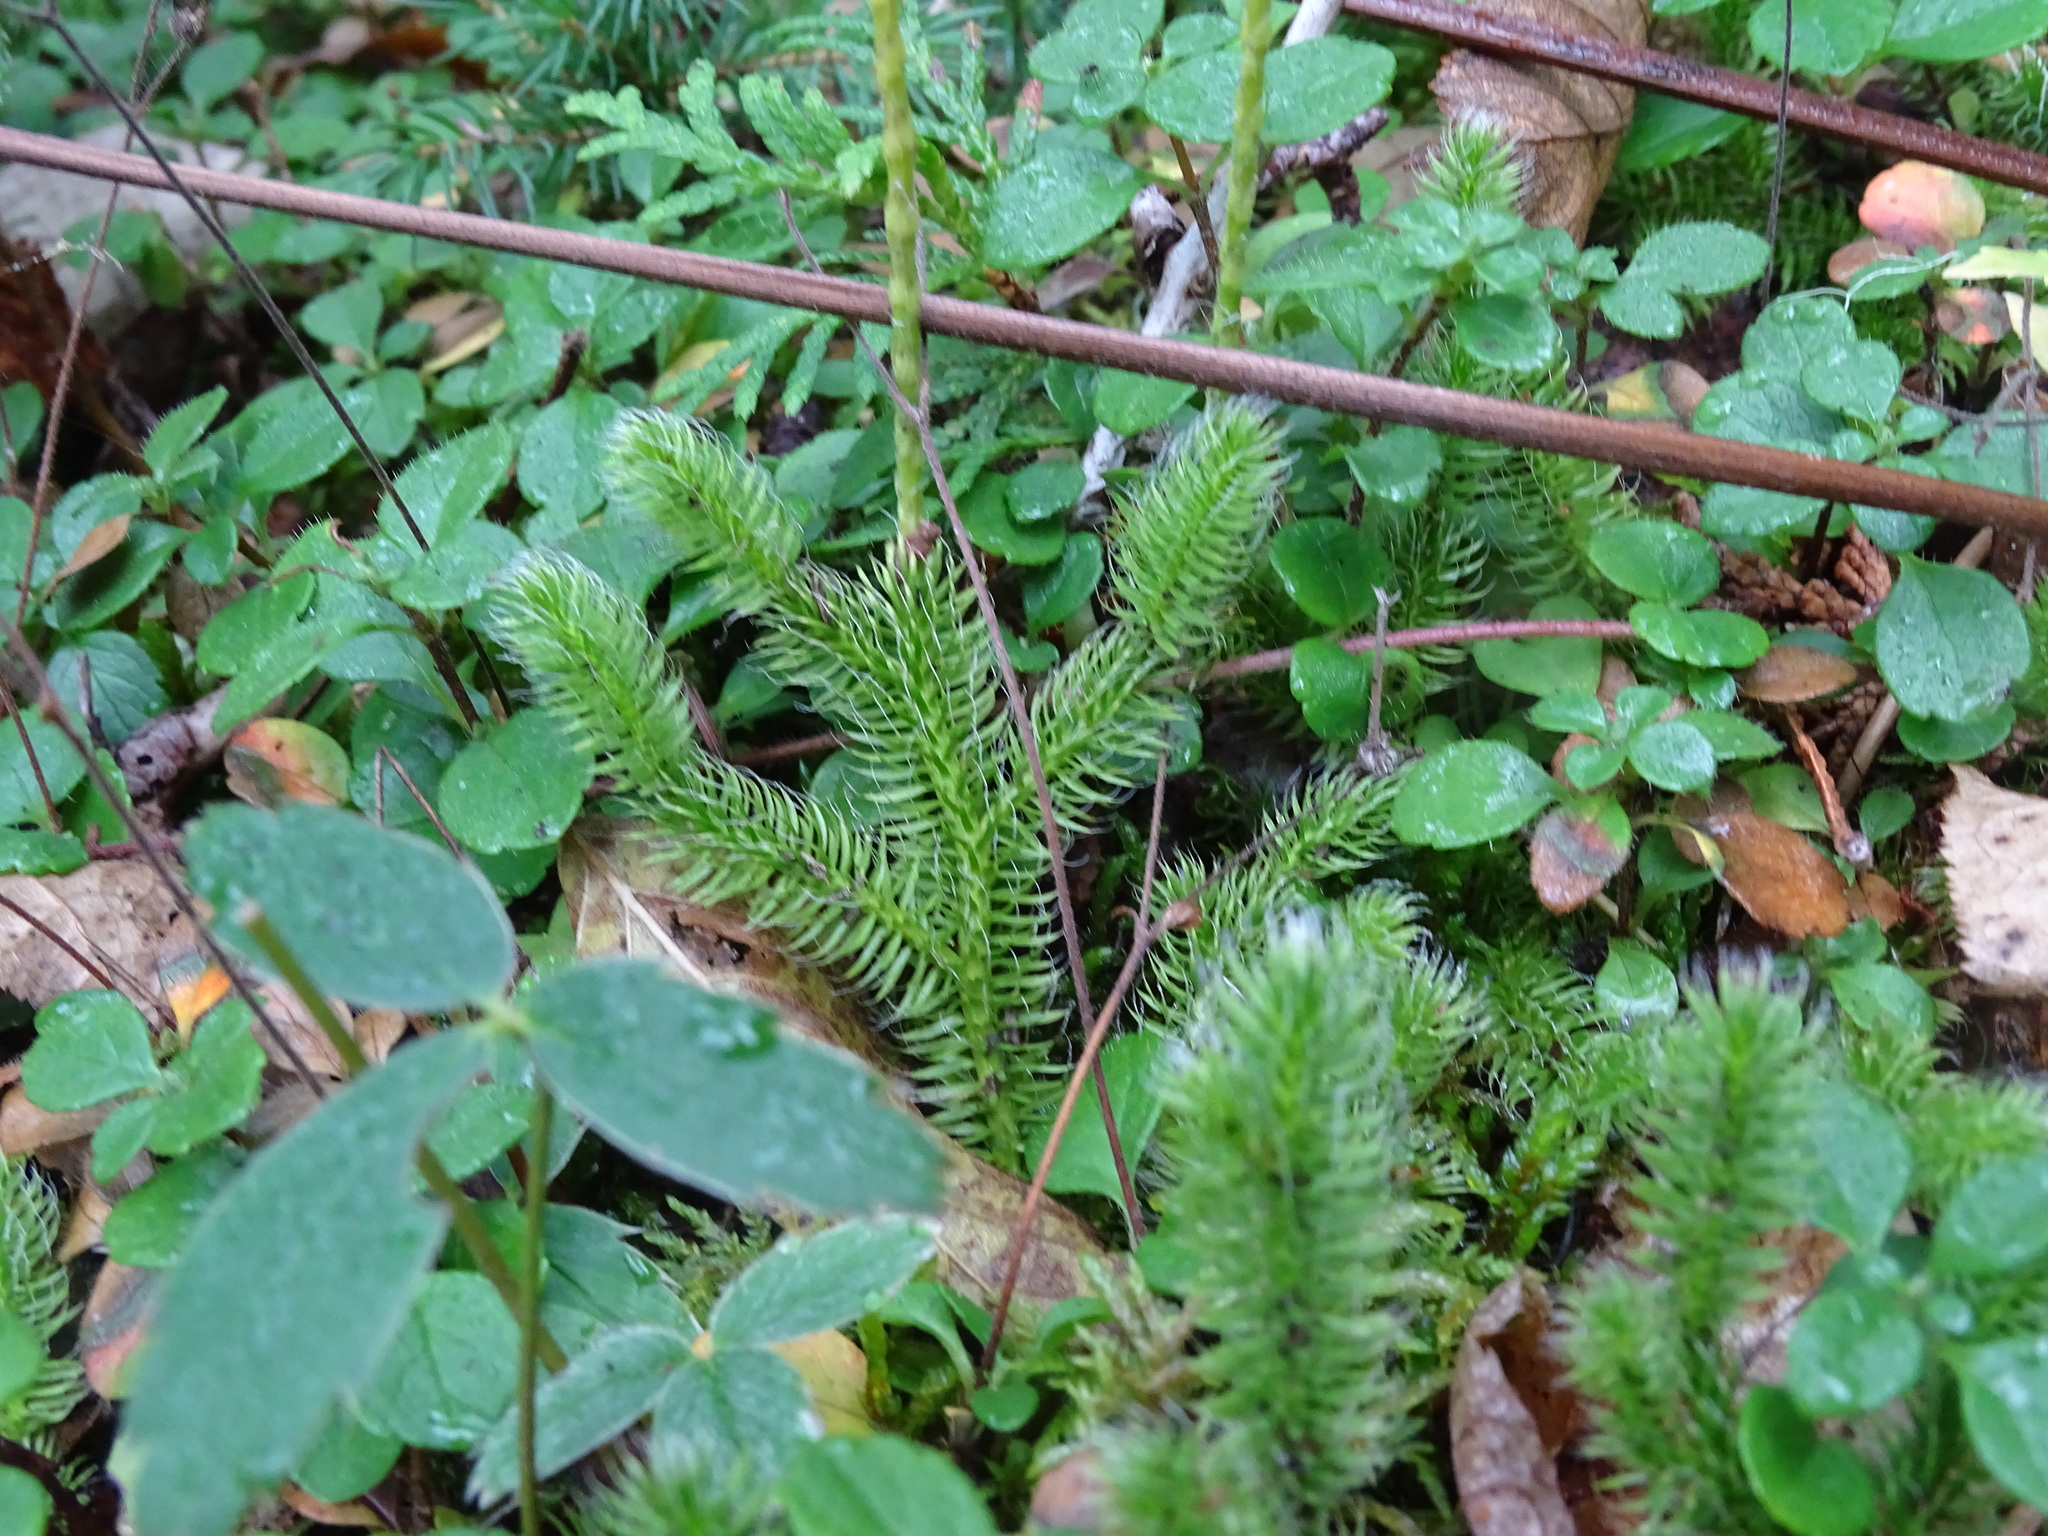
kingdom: Plantae
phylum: Tracheophyta
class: Lycopodiopsida
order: Lycopodiales
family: Lycopodiaceae
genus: Lycopodium
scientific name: Lycopodium clavatum
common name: Stag's-horn clubmoss
